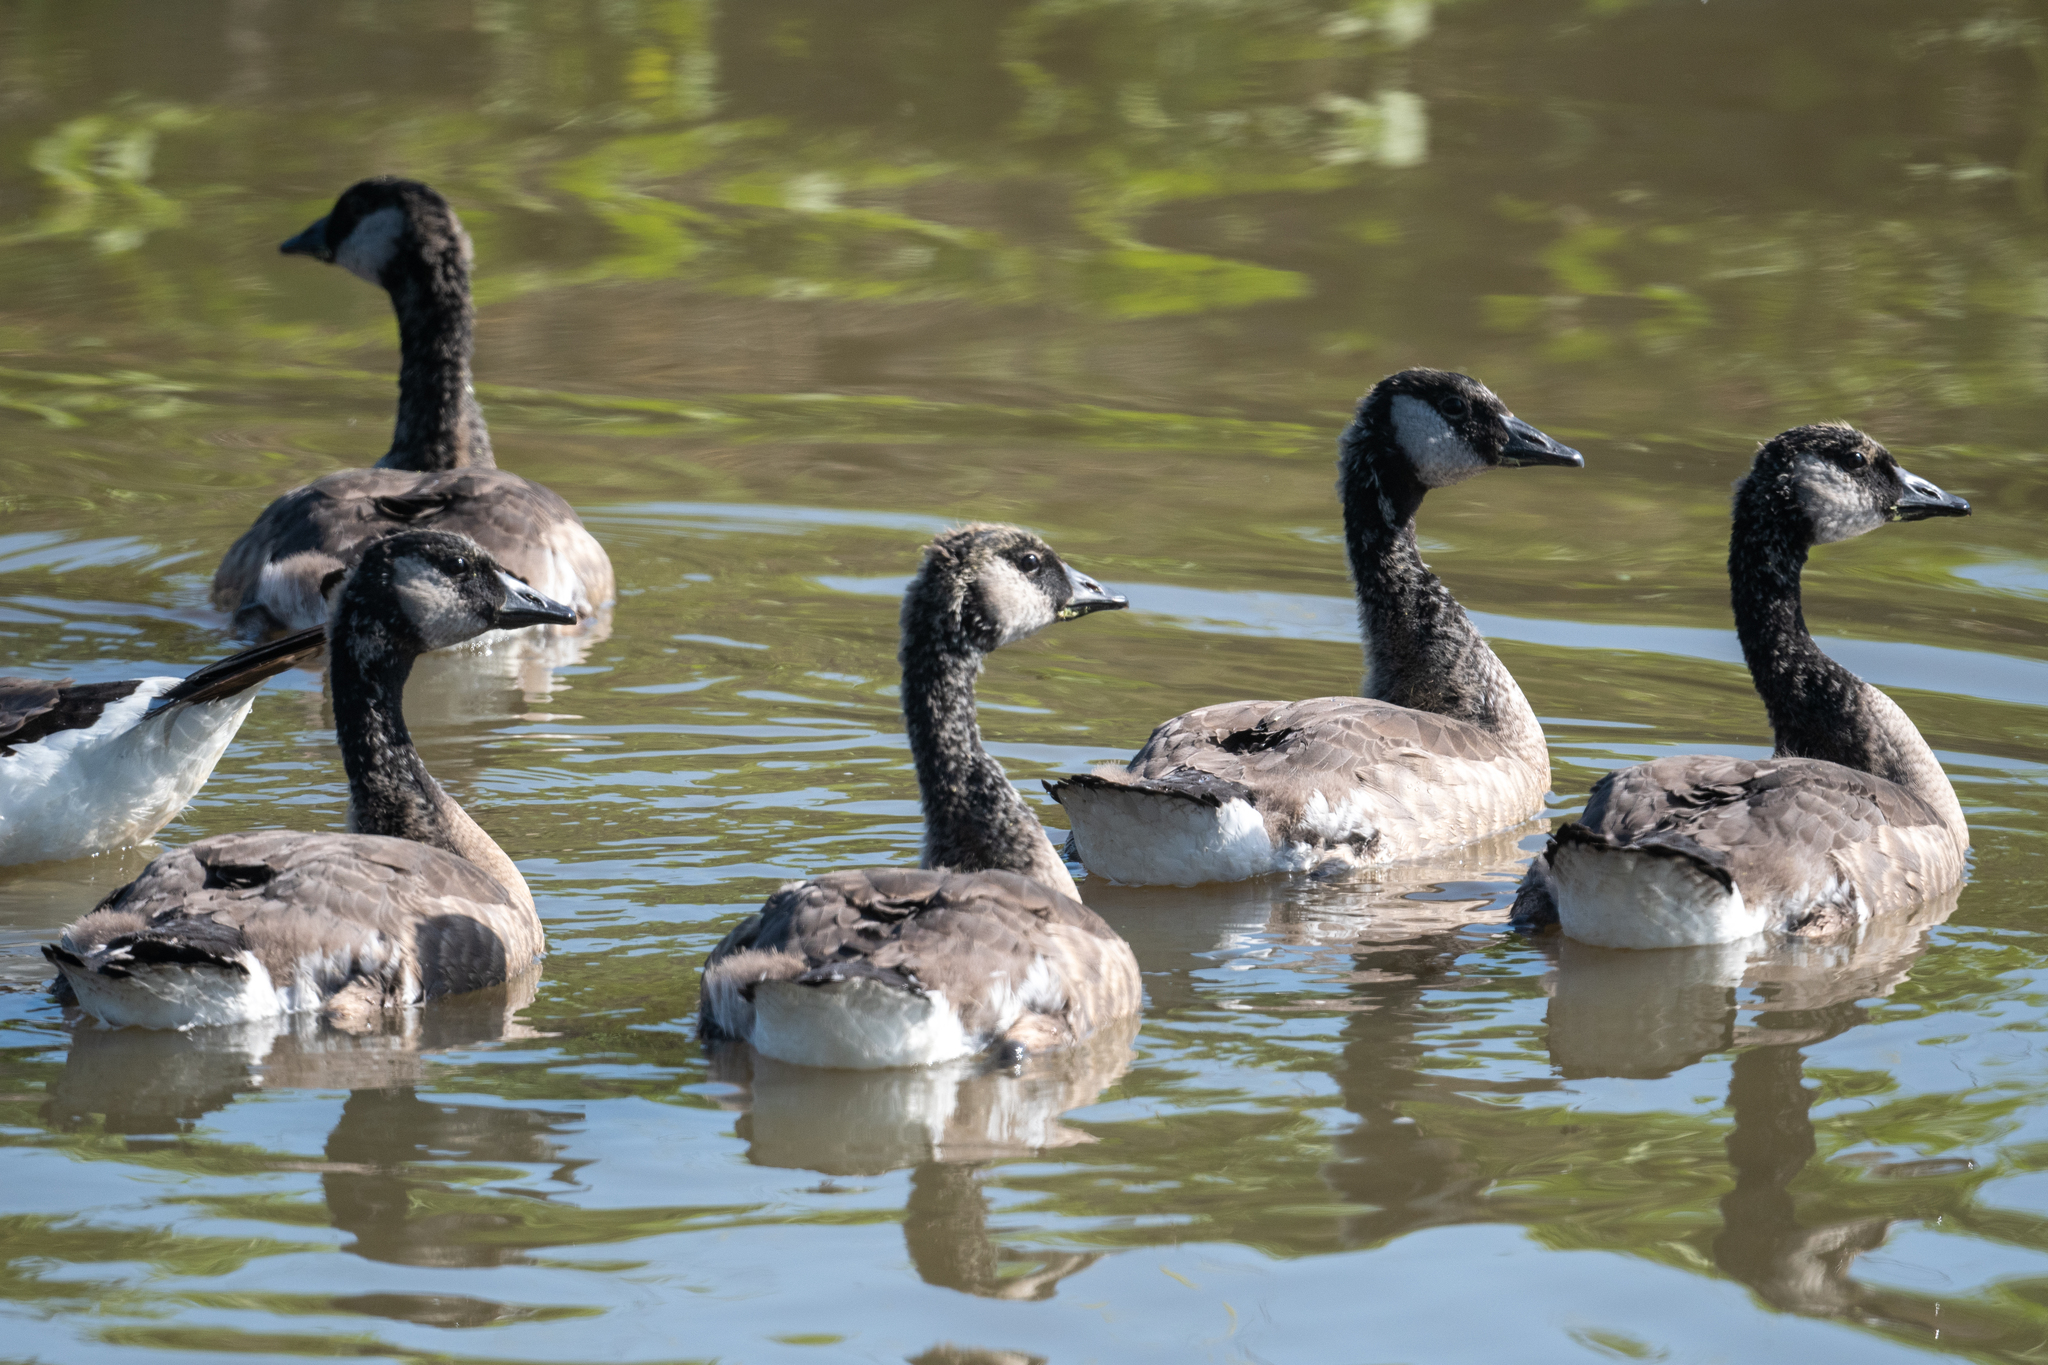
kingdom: Animalia
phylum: Chordata
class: Aves
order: Anseriformes
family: Anatidae
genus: Branta
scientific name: Branta canadensis
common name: Canada goose
